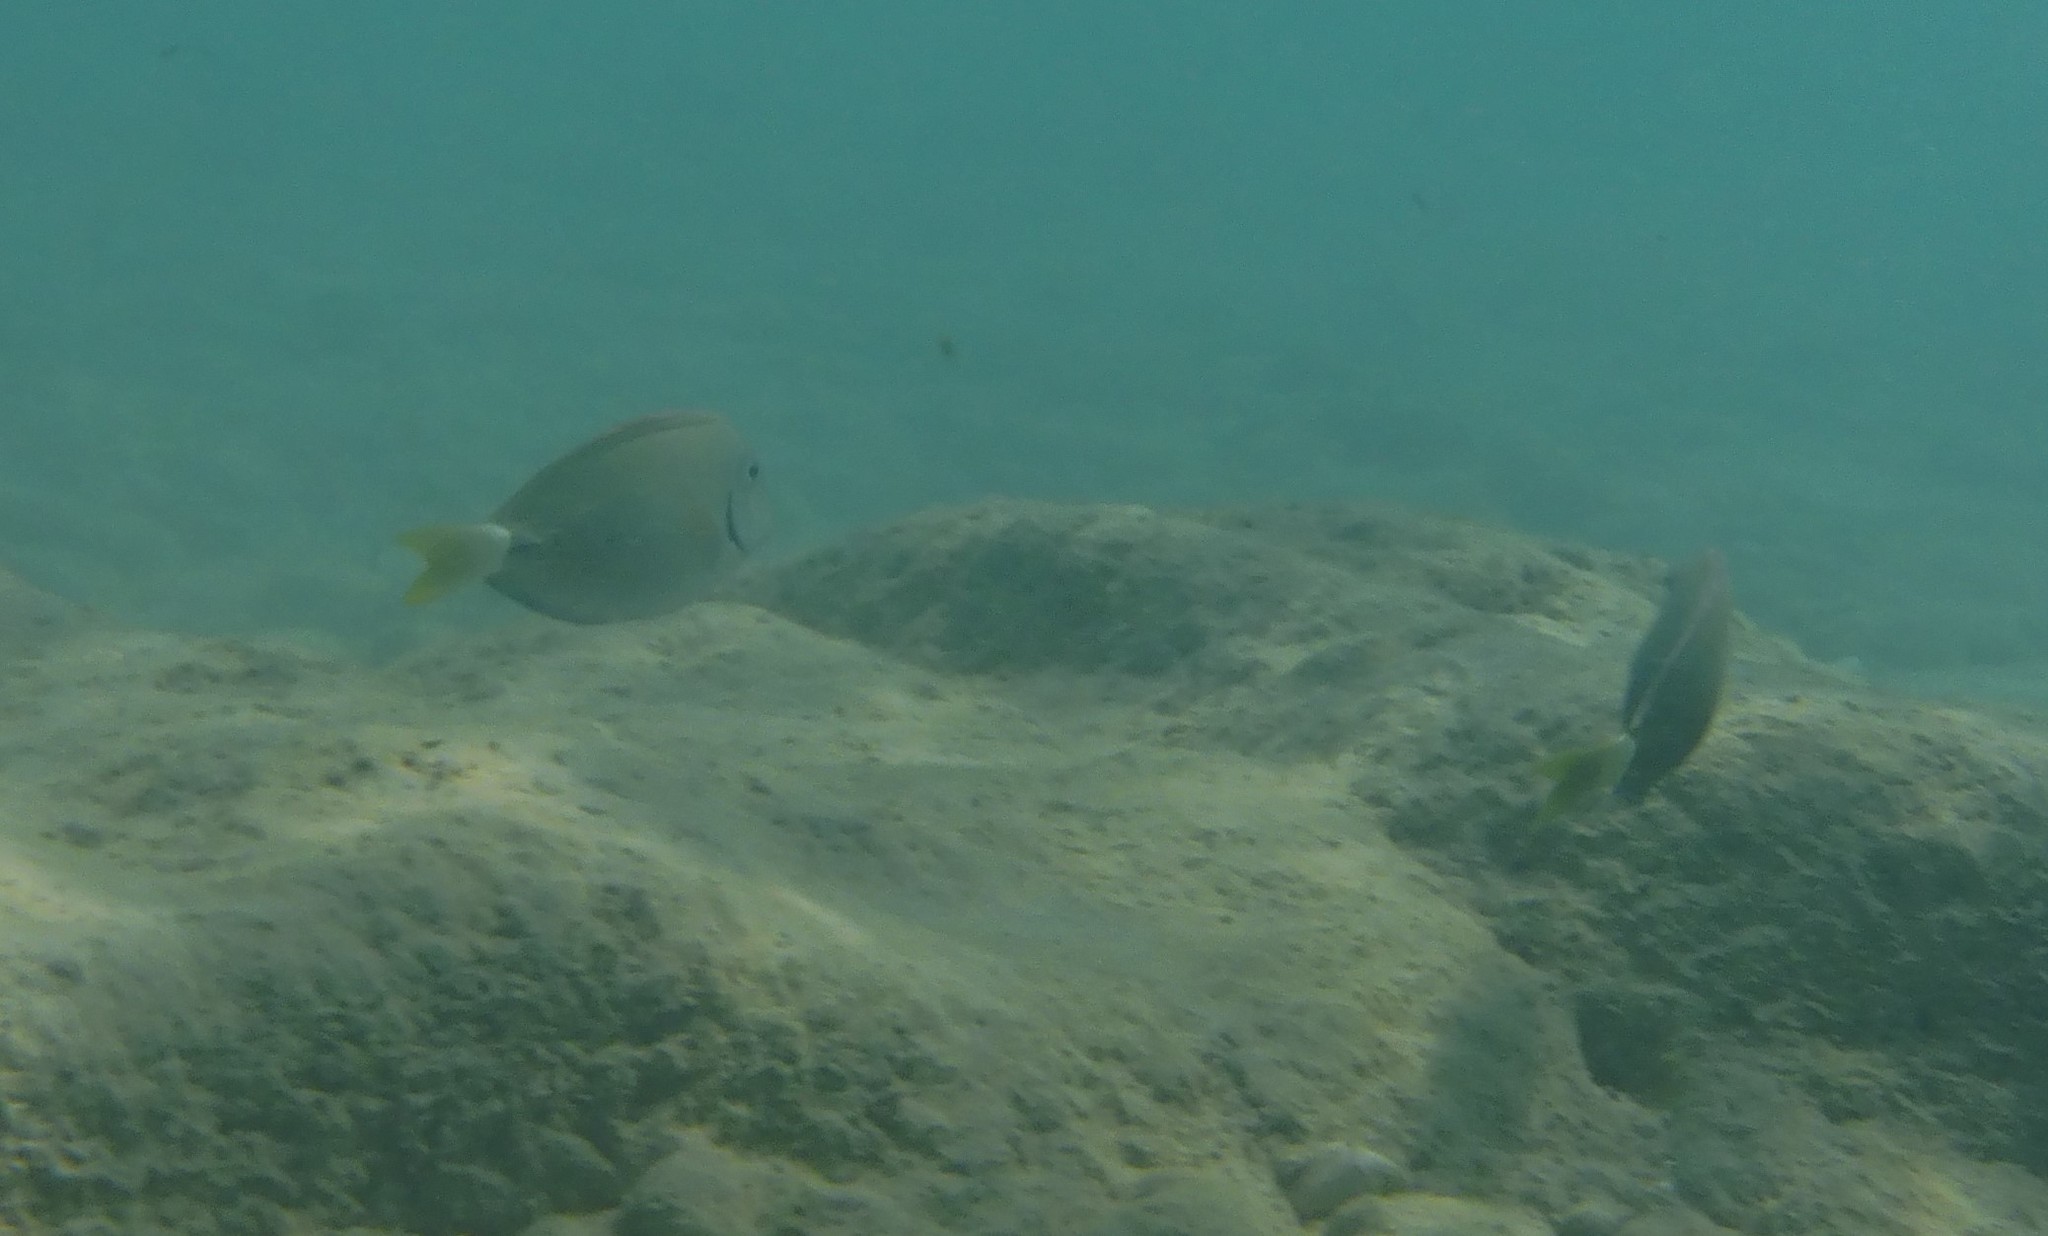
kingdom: Animalia
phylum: Chordata
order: Perciformes
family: Acanthuridae
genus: Acanthurus
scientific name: Acanthurus bahianus
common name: Ocean surgeon
